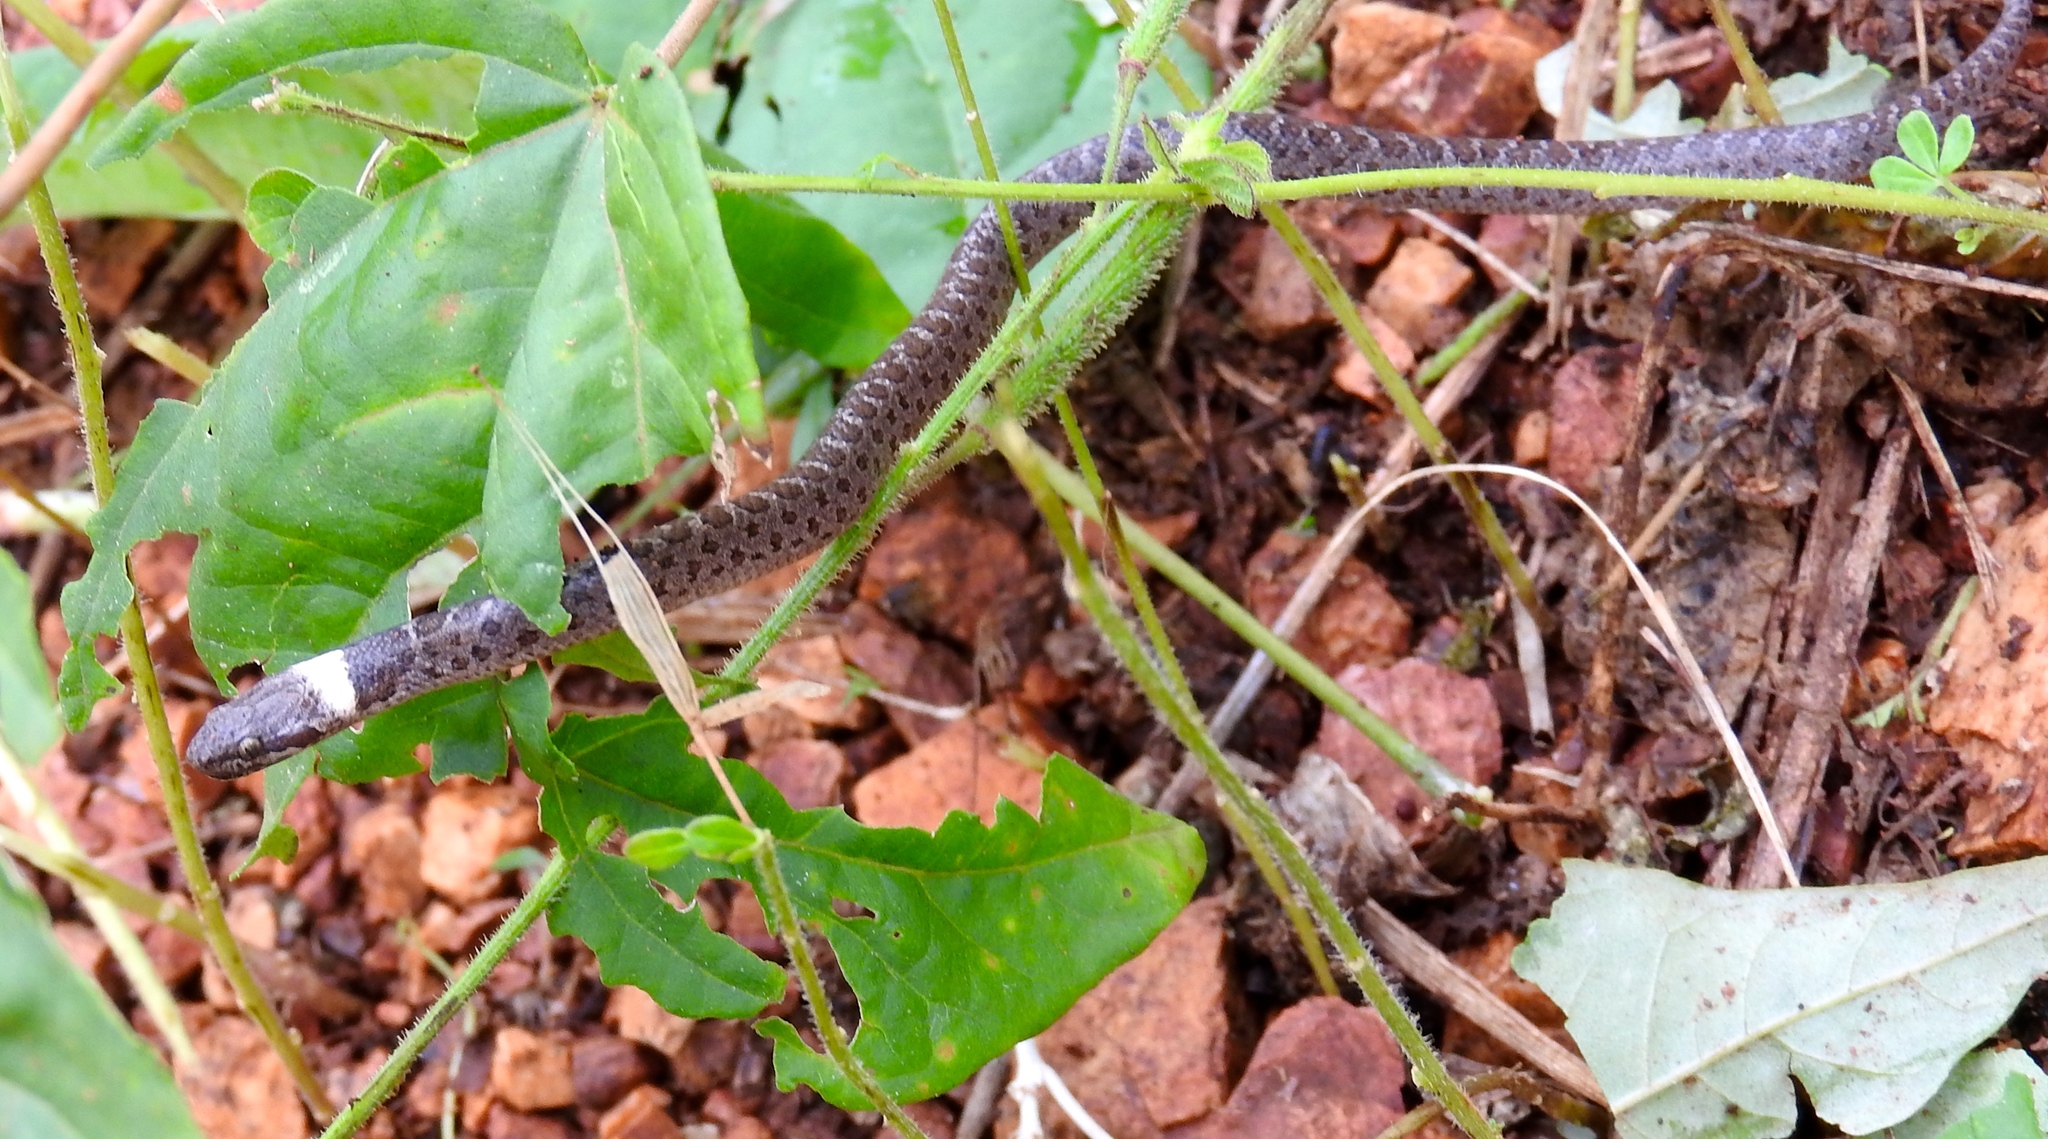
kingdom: Animalia
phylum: Chordata
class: Squamata
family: Colubridae
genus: Hypsiglena
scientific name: Hypsiglena torquata
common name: Night snake
